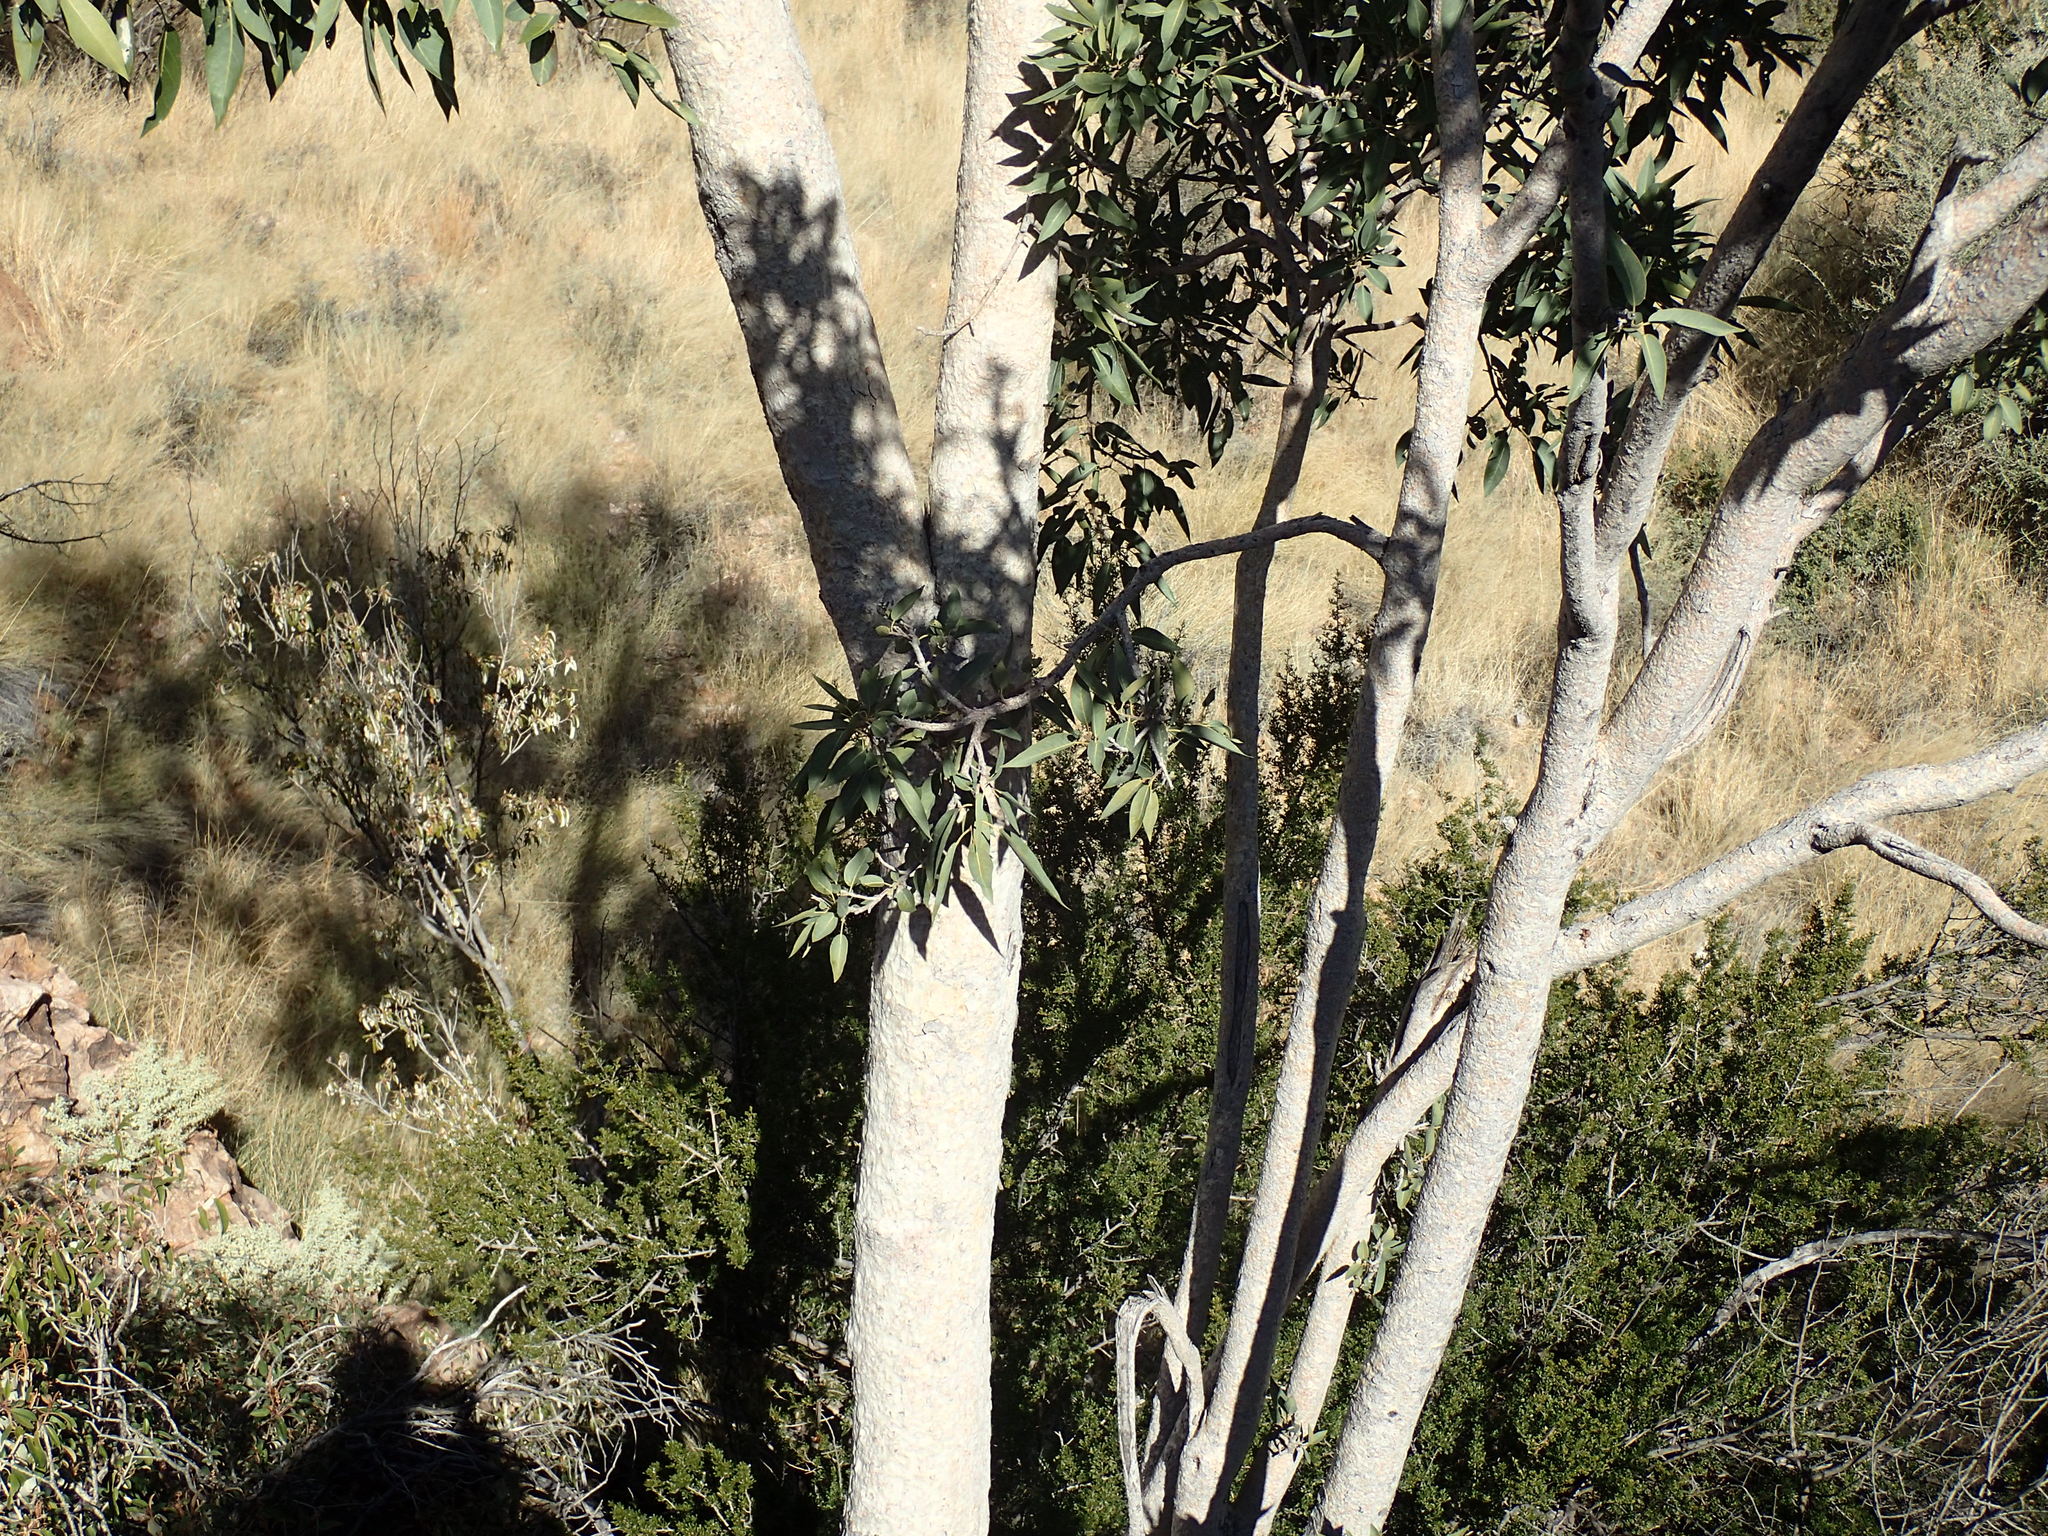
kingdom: Plantae
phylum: Tracheophyta
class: Magnoliopsida
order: Rosales
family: Moraceae
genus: Ficus
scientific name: Ficus cordata
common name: Namaqua rock fig
